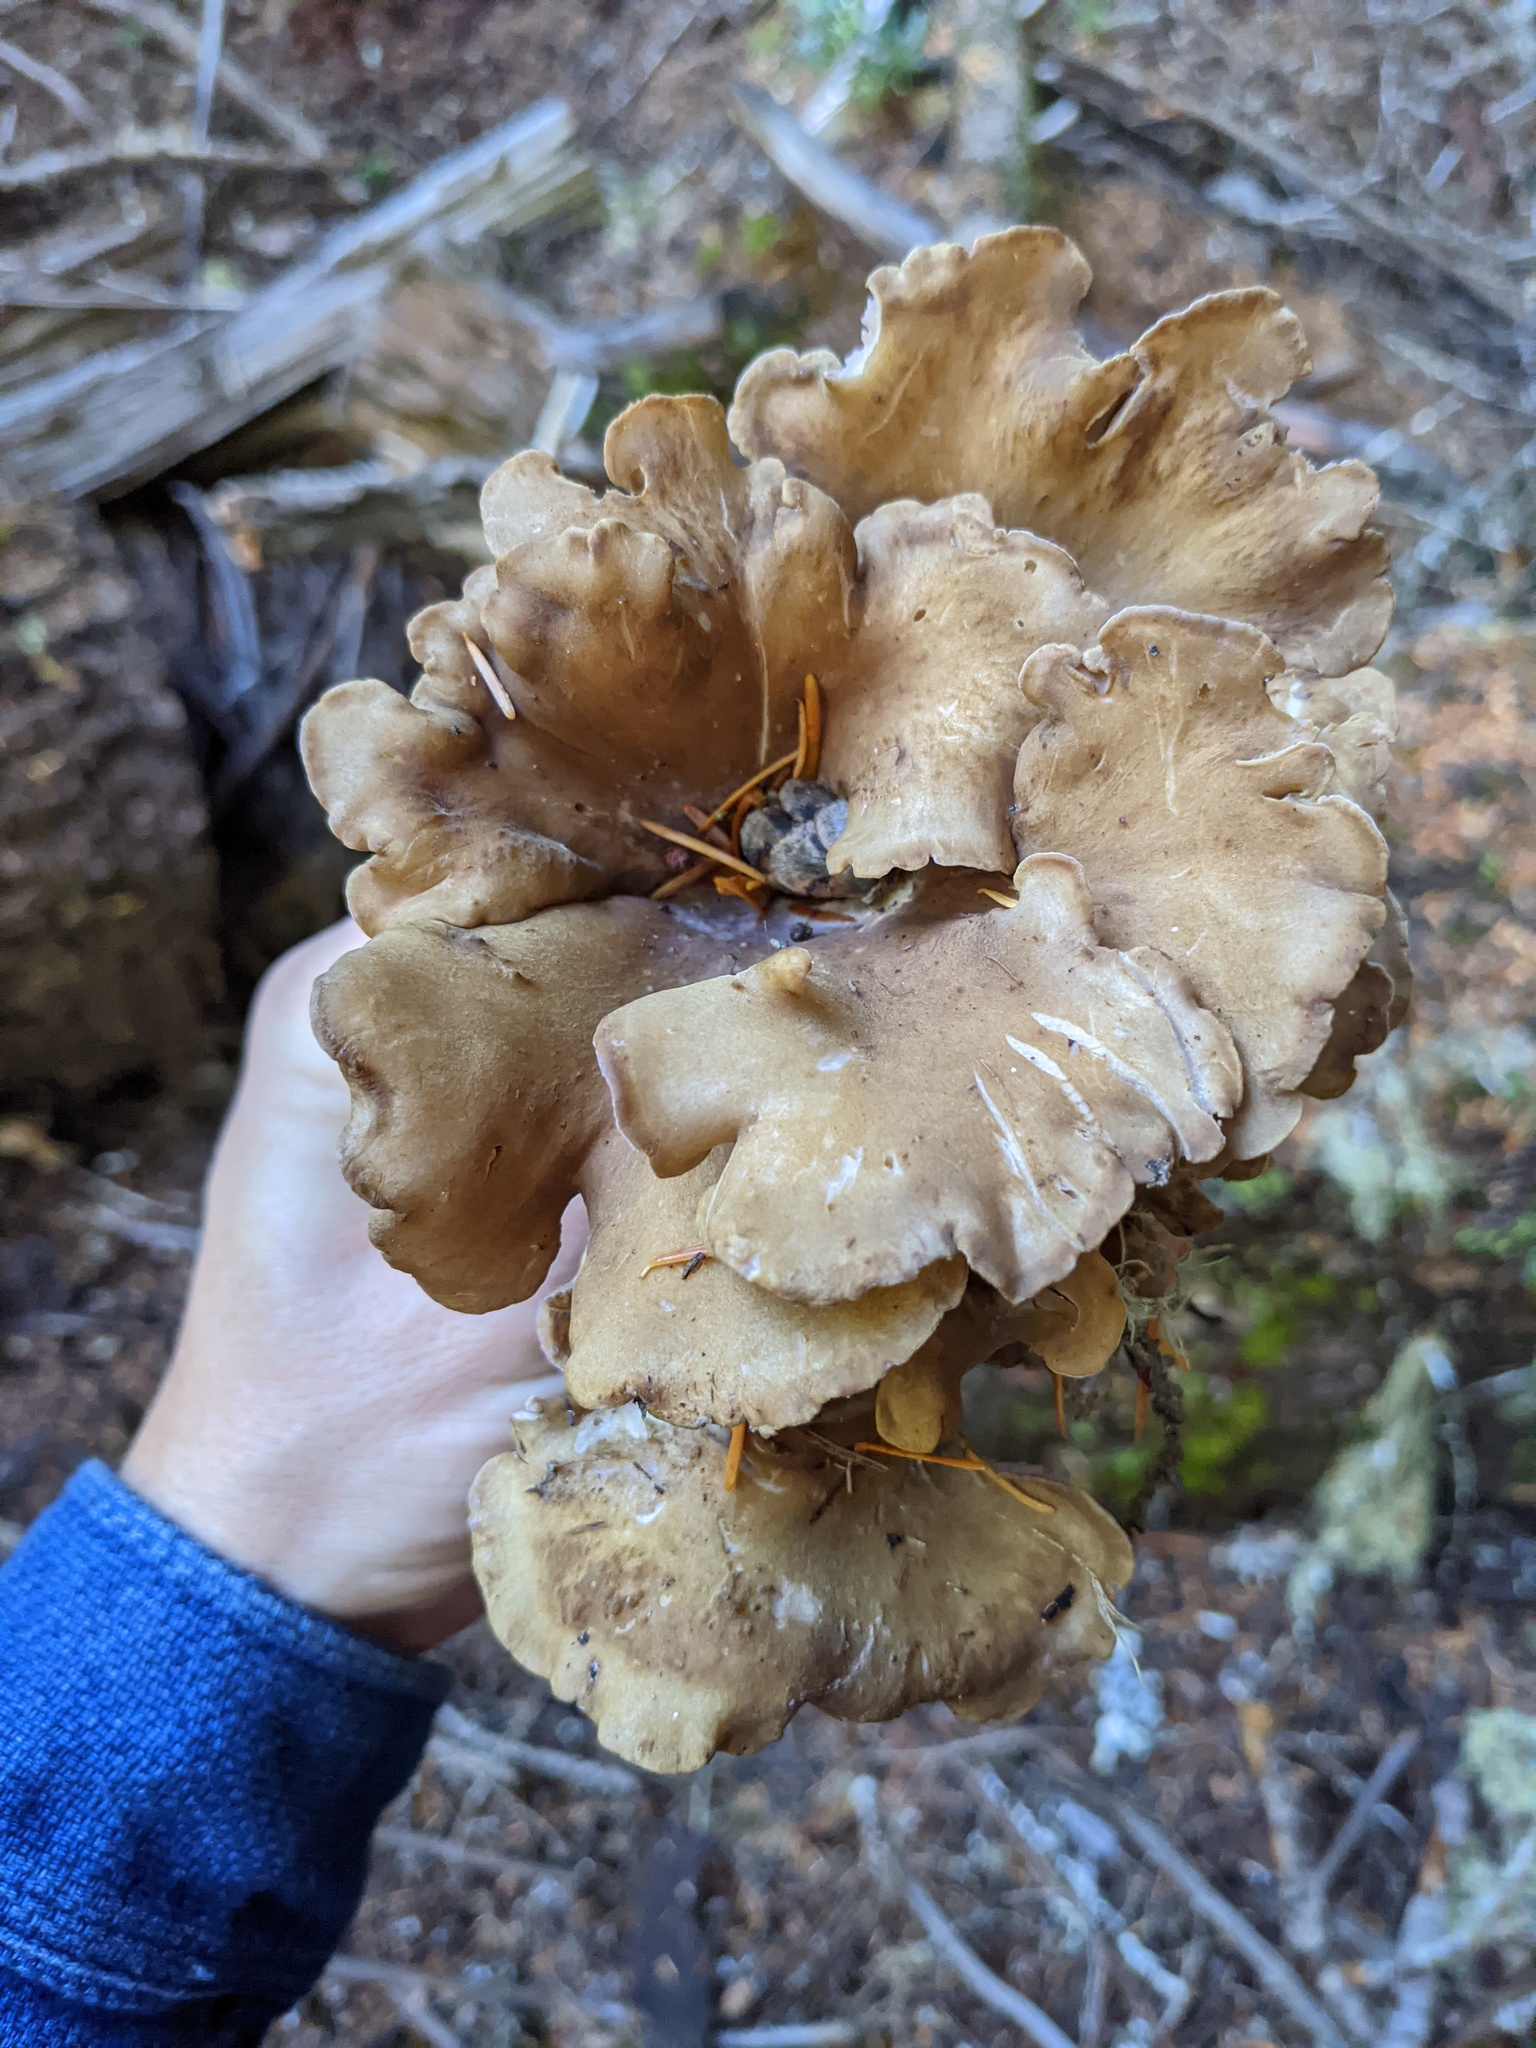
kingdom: Fungi
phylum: Basidiomycota
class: Agaricomycetes
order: Gomphales
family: Gomphaceae
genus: Gomphus
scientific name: Gomphus clavatus
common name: Pig's ear
